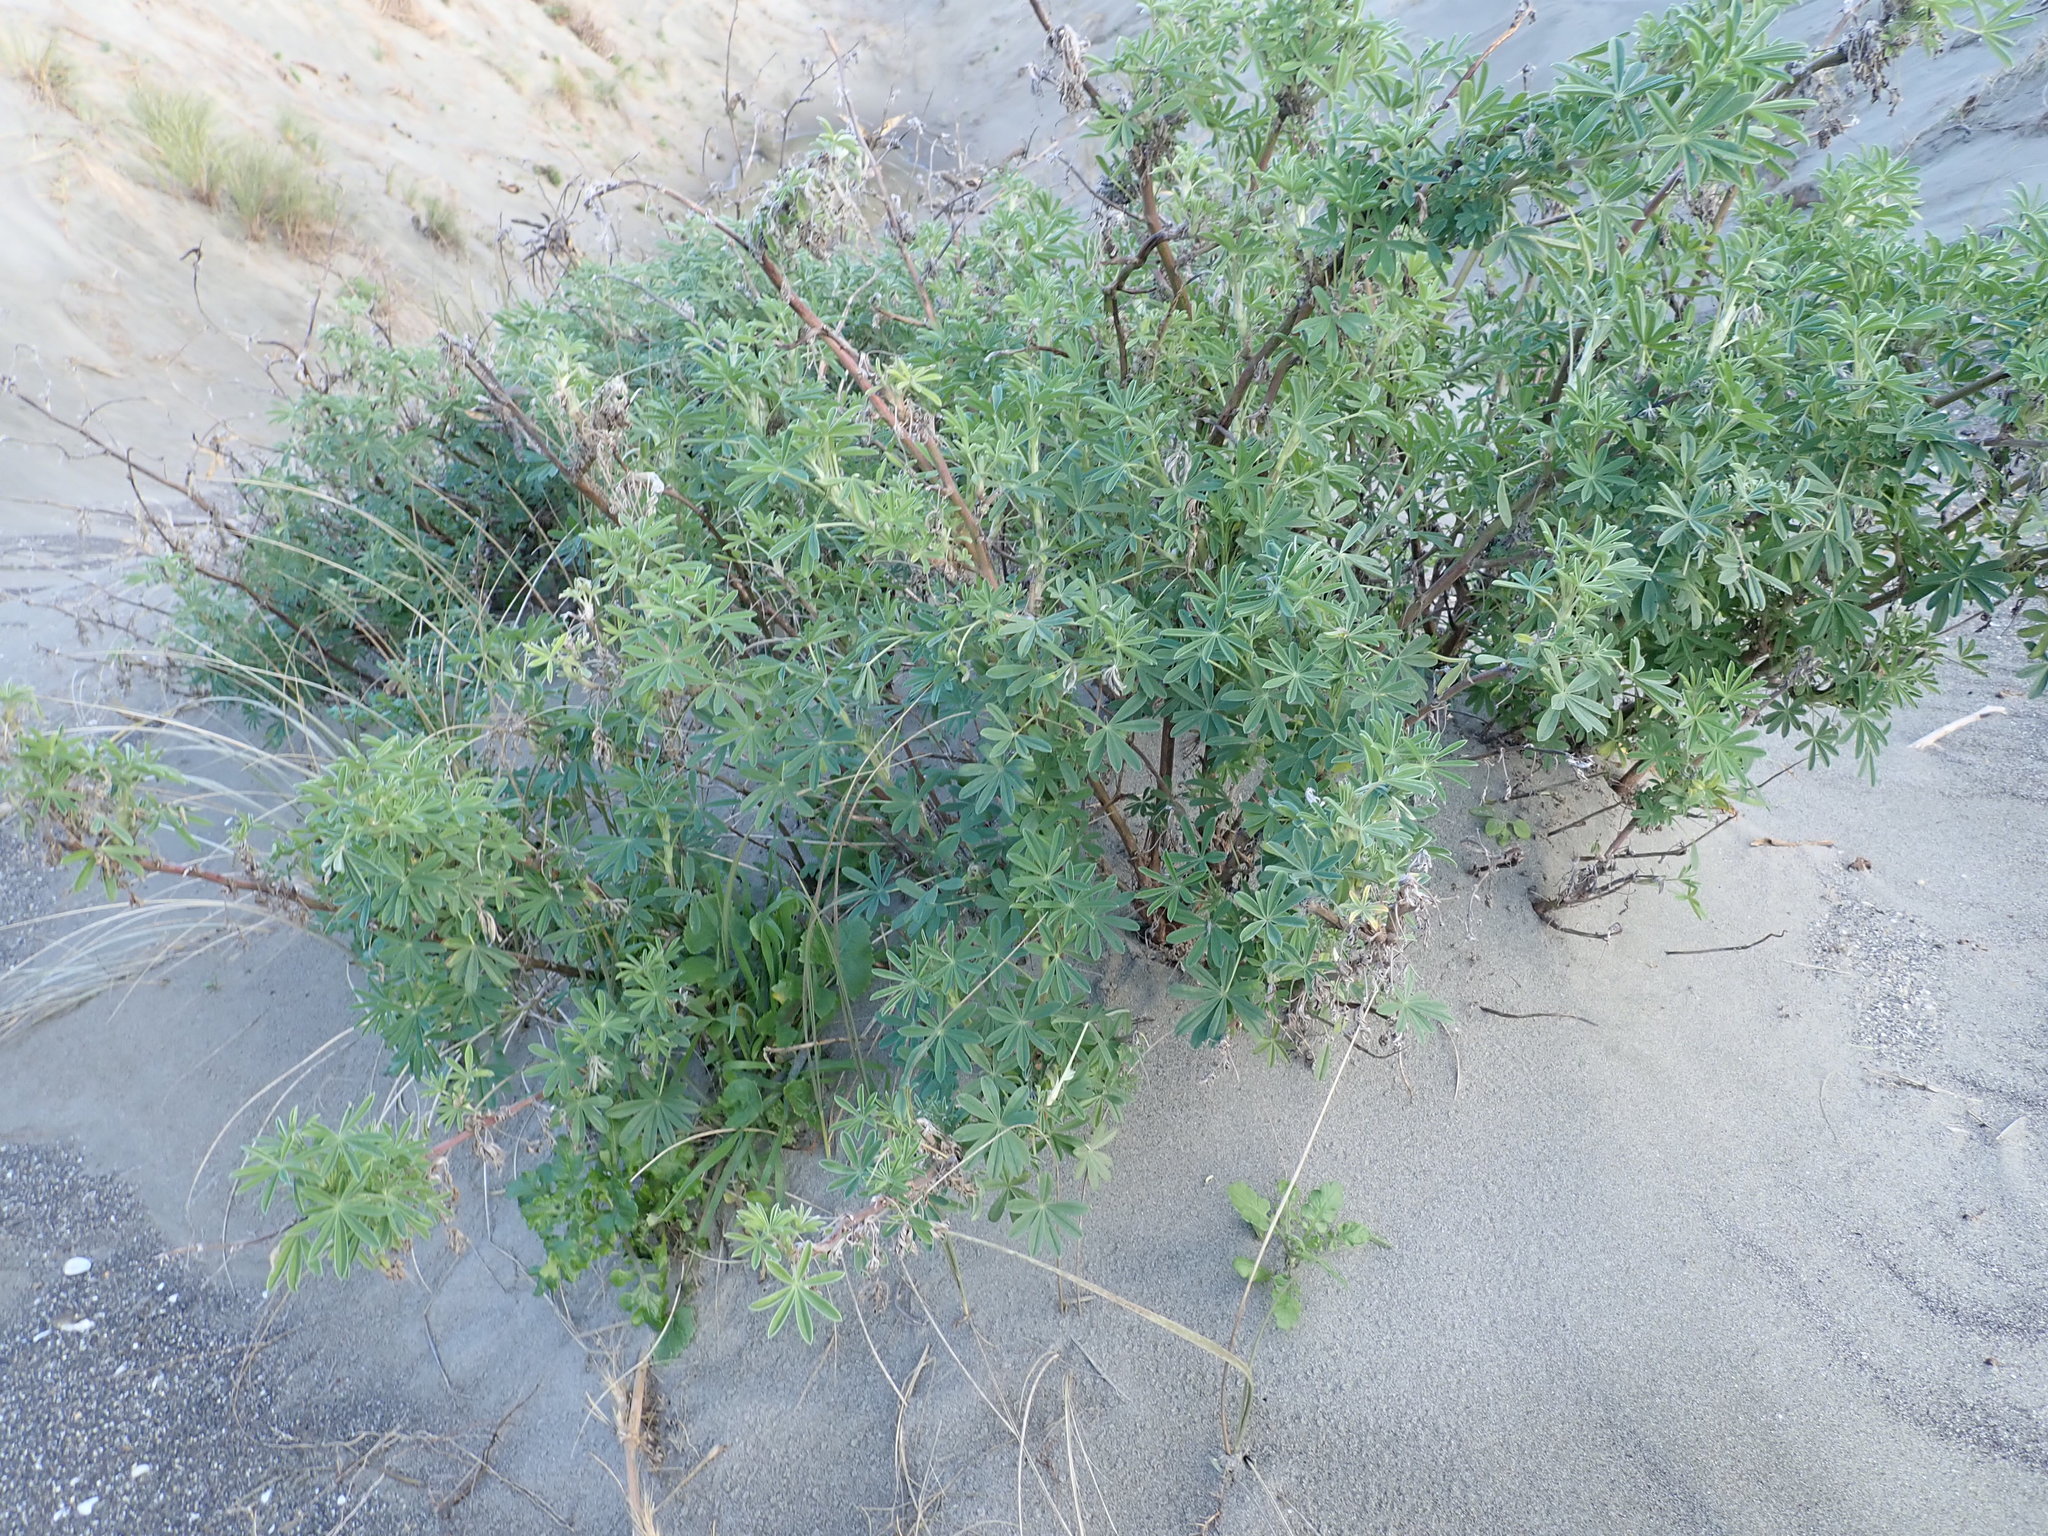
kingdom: Plantae
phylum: Tracheophyta
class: Magnoliopsida
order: Fabales
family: Fabaceae
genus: Lupinus
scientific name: Lupinus arboreus
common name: Yellow bush lupine
